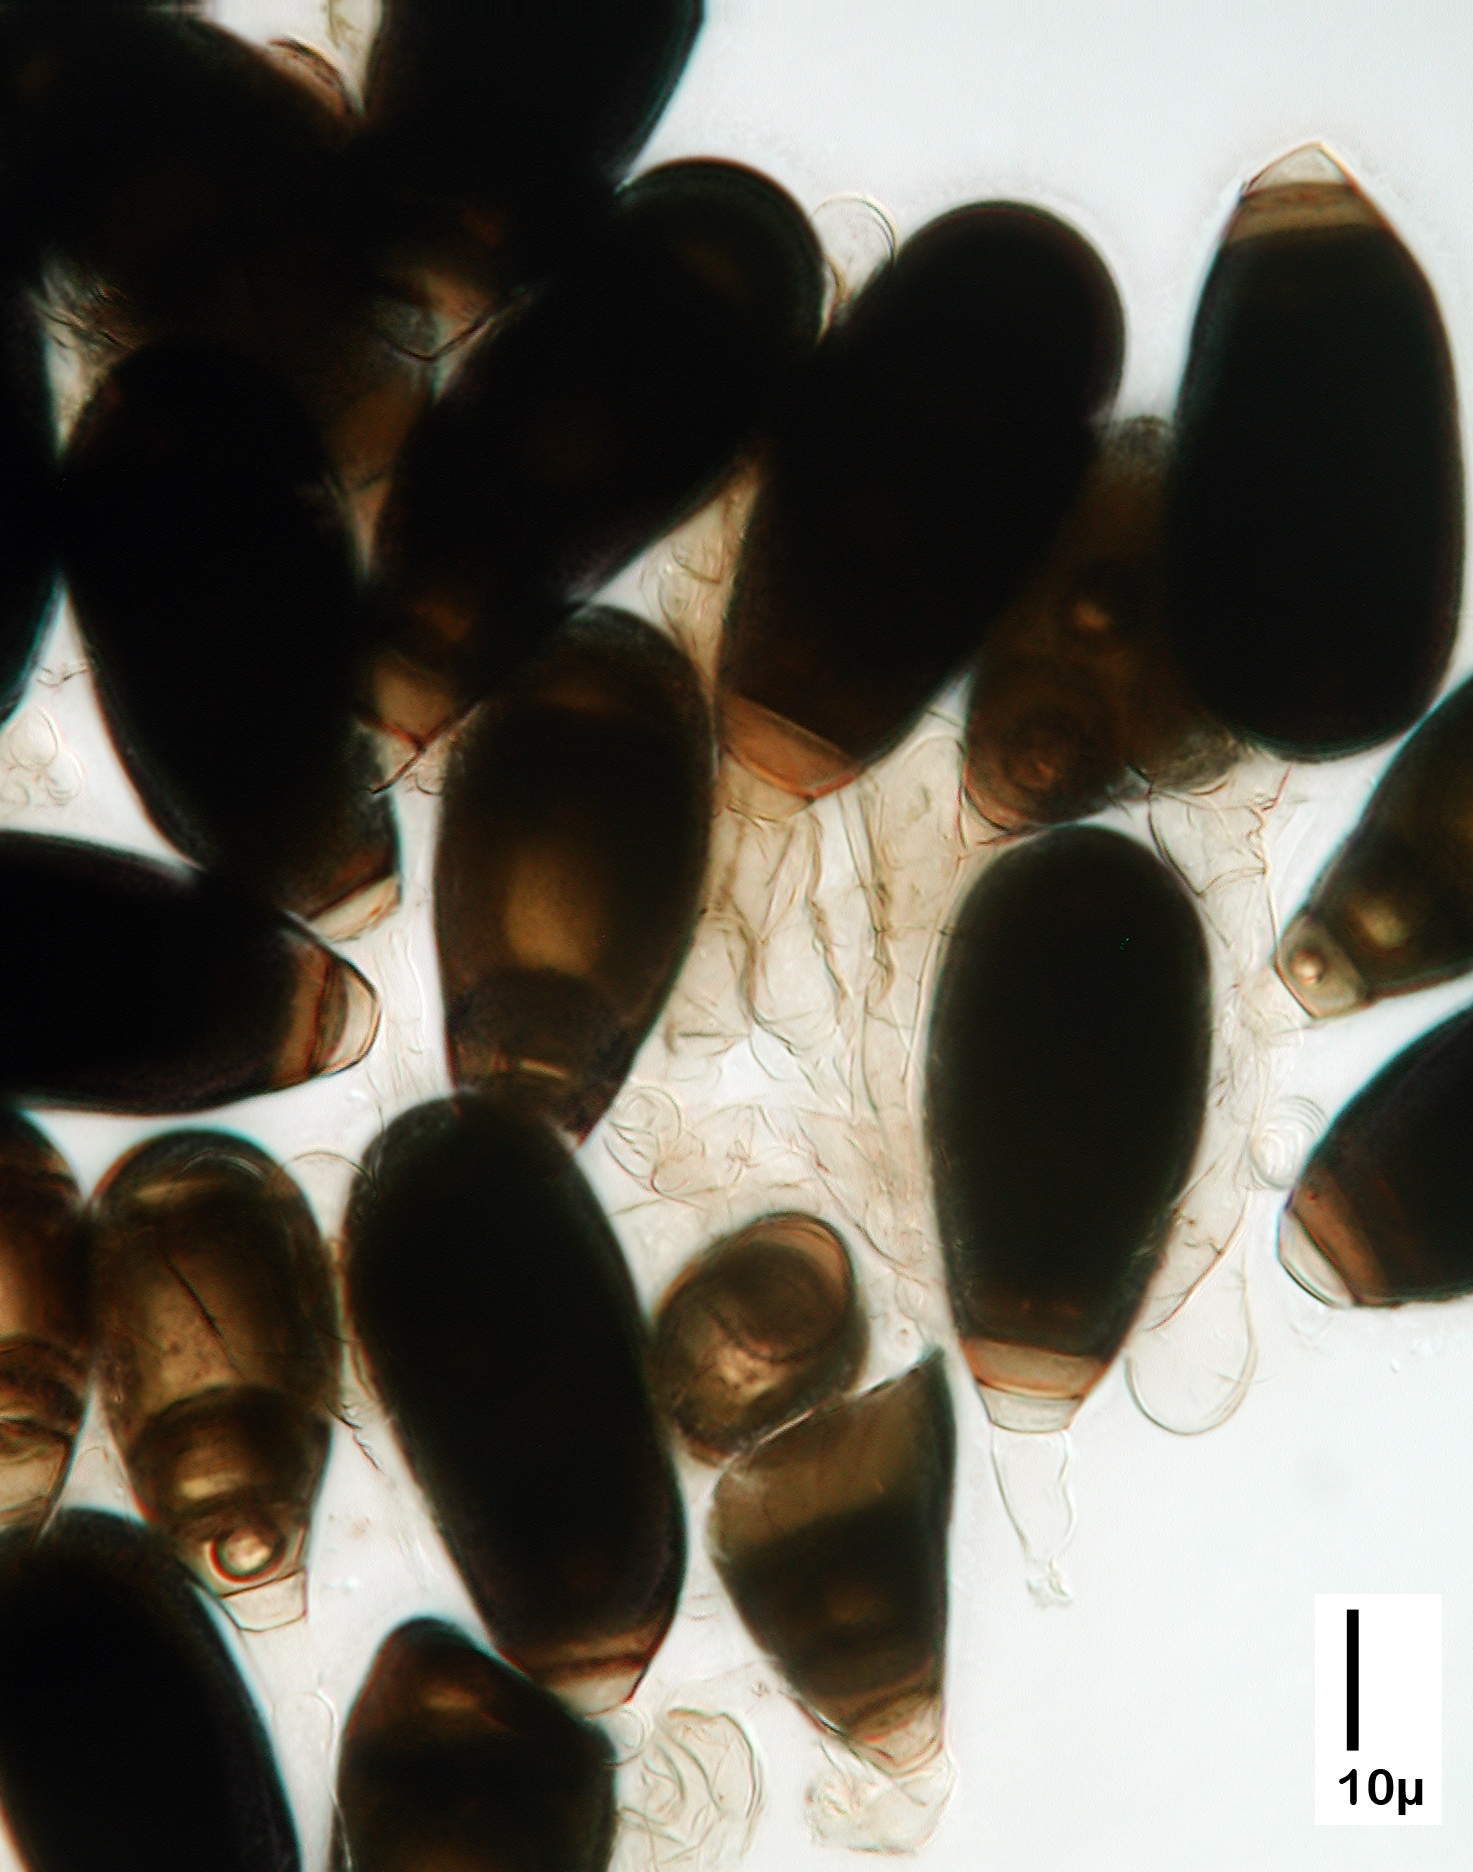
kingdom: Fungi
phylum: Ascomycota
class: Dothideomycetes
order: Pleosporales
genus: Bactrodesmium
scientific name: Bactrodesmium abruptum
